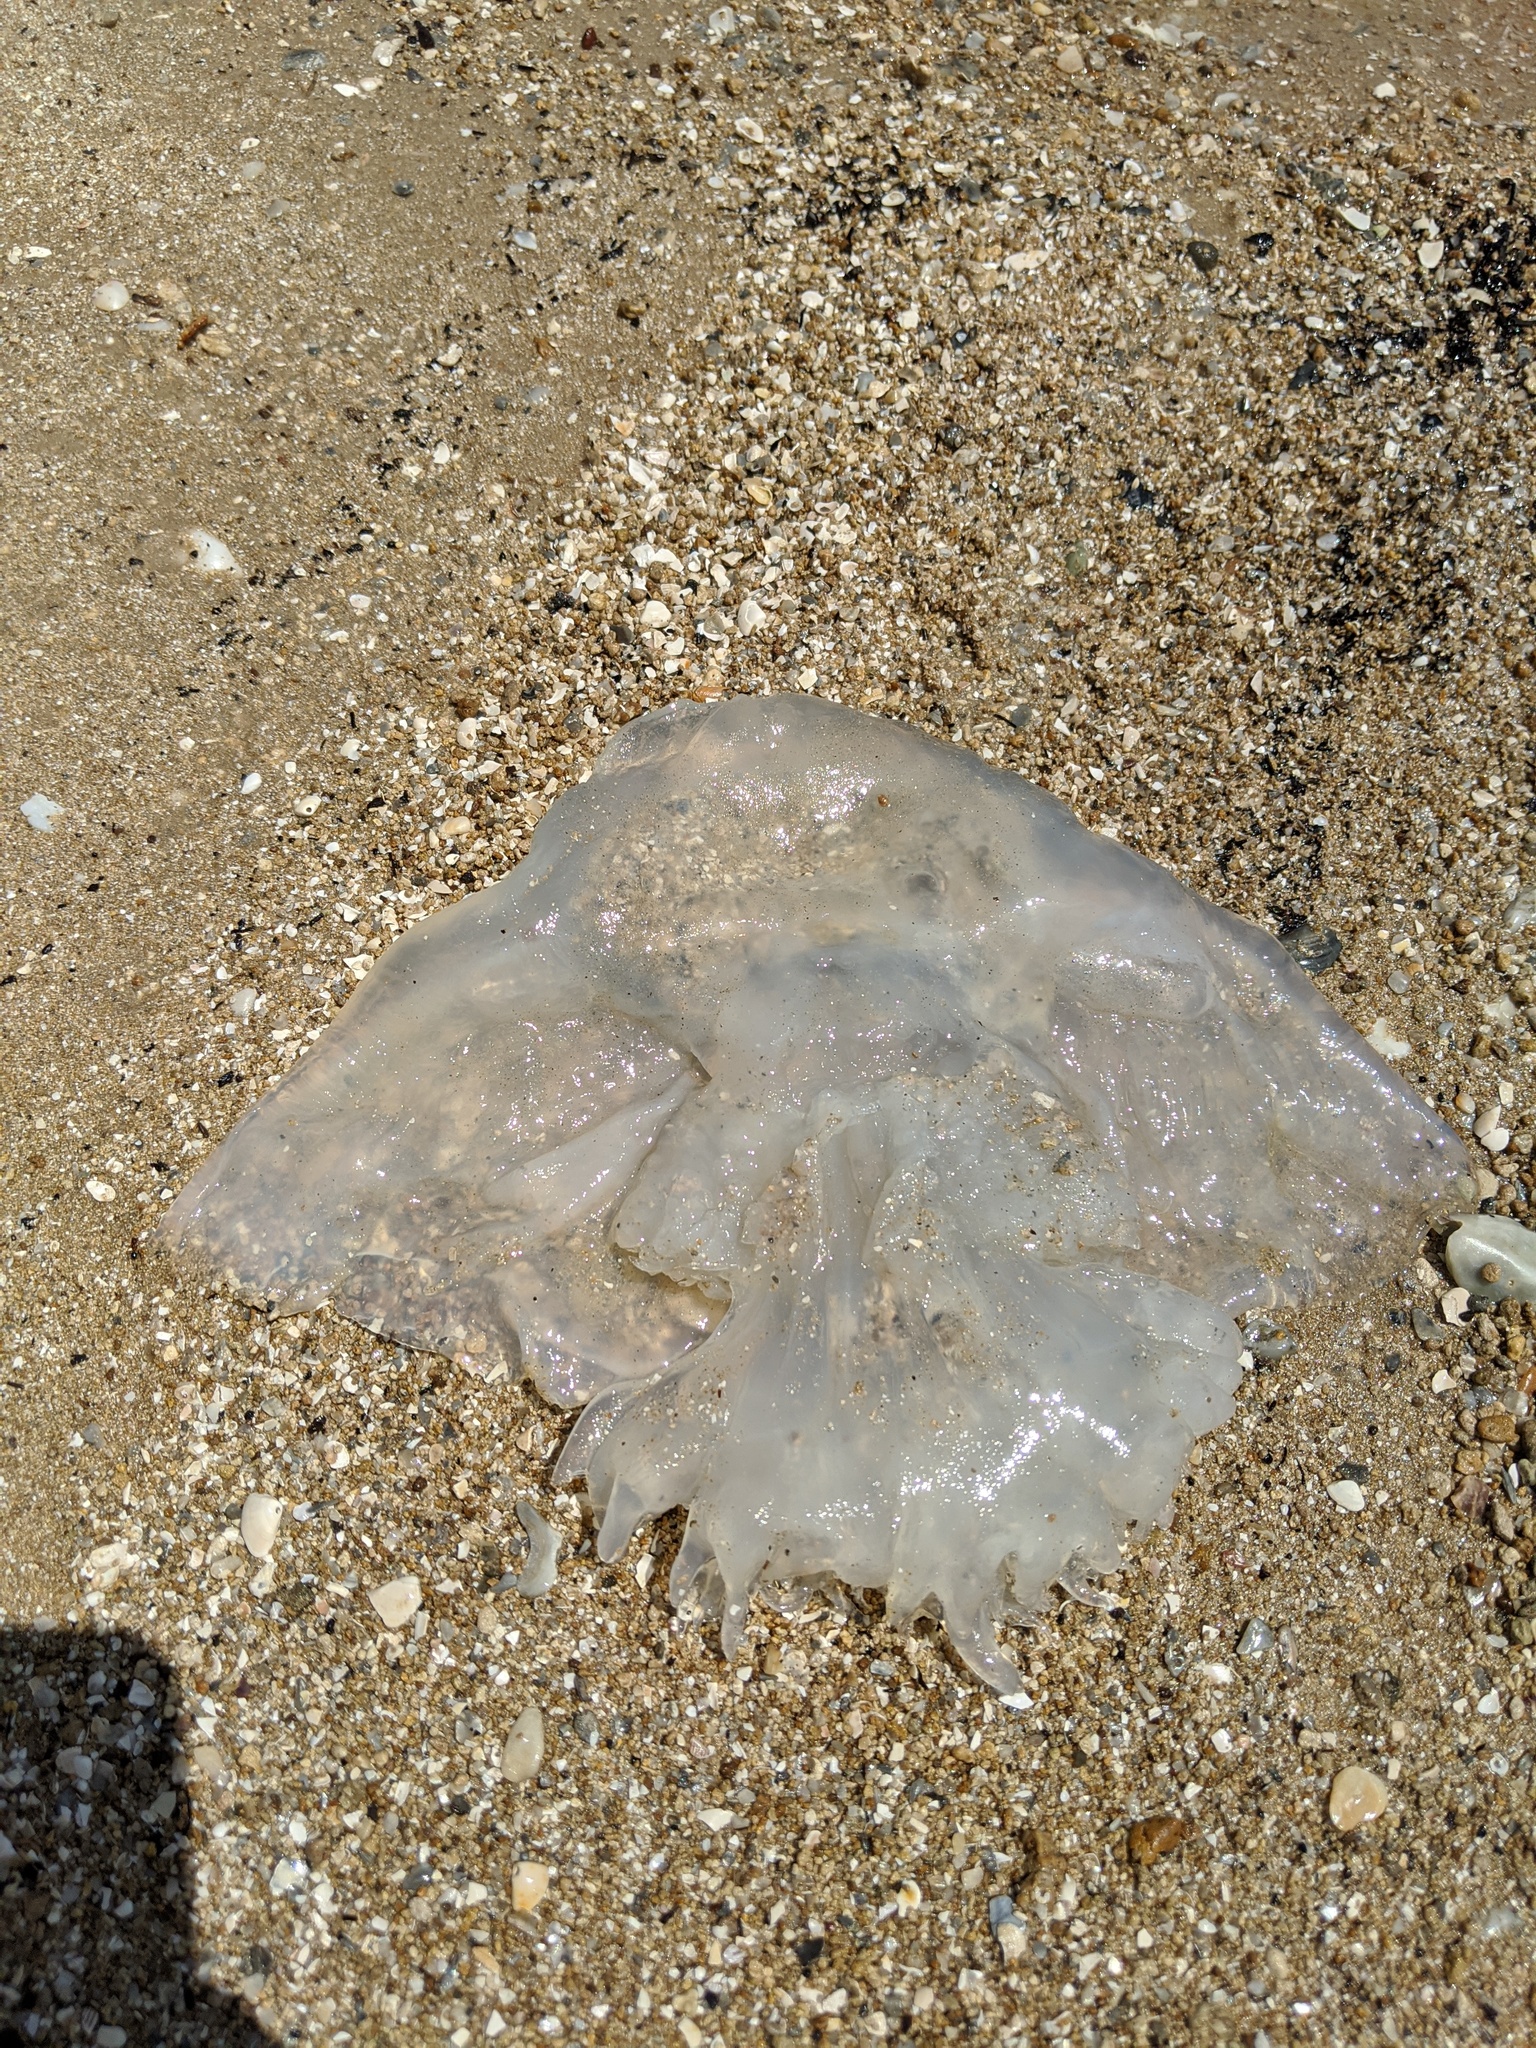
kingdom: Animalia
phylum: Cnidaria
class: Scyphozoa
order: Rhizostomeae
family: Stomolophidae
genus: Stomolophus
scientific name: Stomolophus meleagris
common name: Cabbagehead
